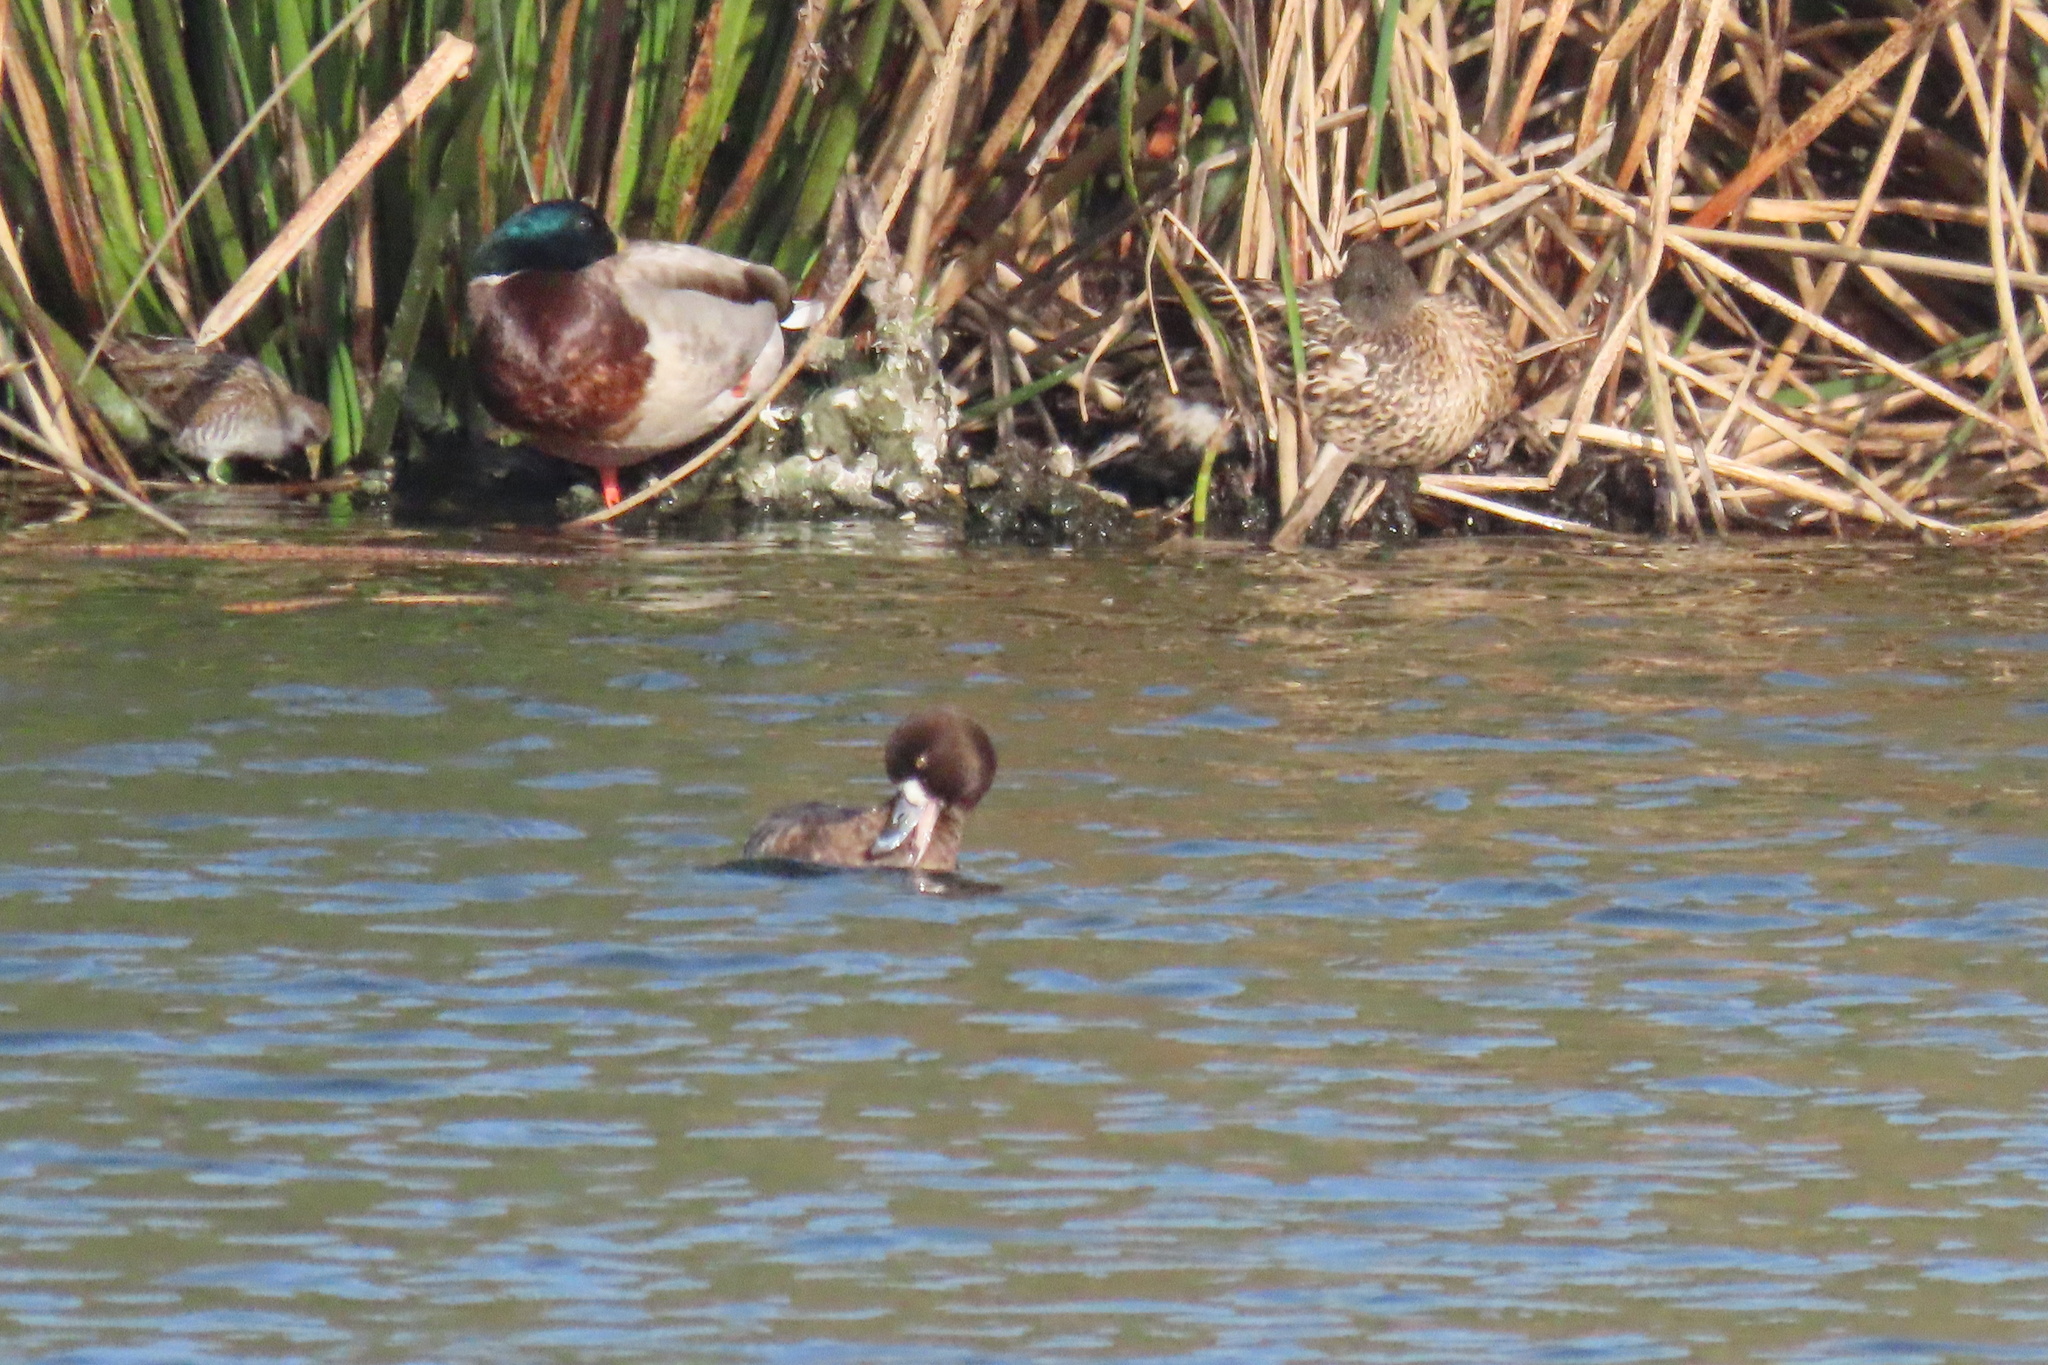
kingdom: Animalia
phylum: Chordata
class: Aves
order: Gruiformes
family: Rallidae
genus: Porzana
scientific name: Porzana carolina
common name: Sora
